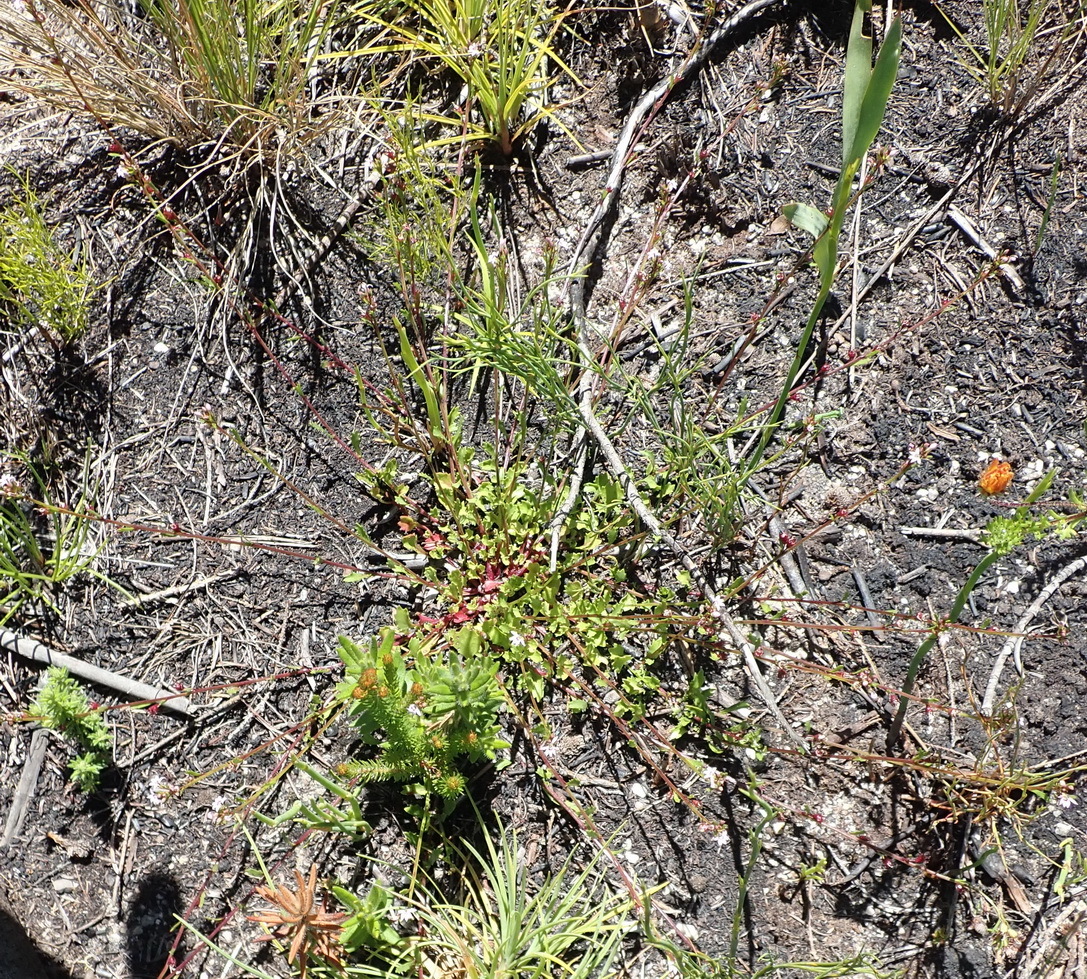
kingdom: Plantae
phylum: Tracheophyta
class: Magnoliopsida
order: Asterales
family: Campanulaceae
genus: Lobelia
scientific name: Lobelia jasionoides
